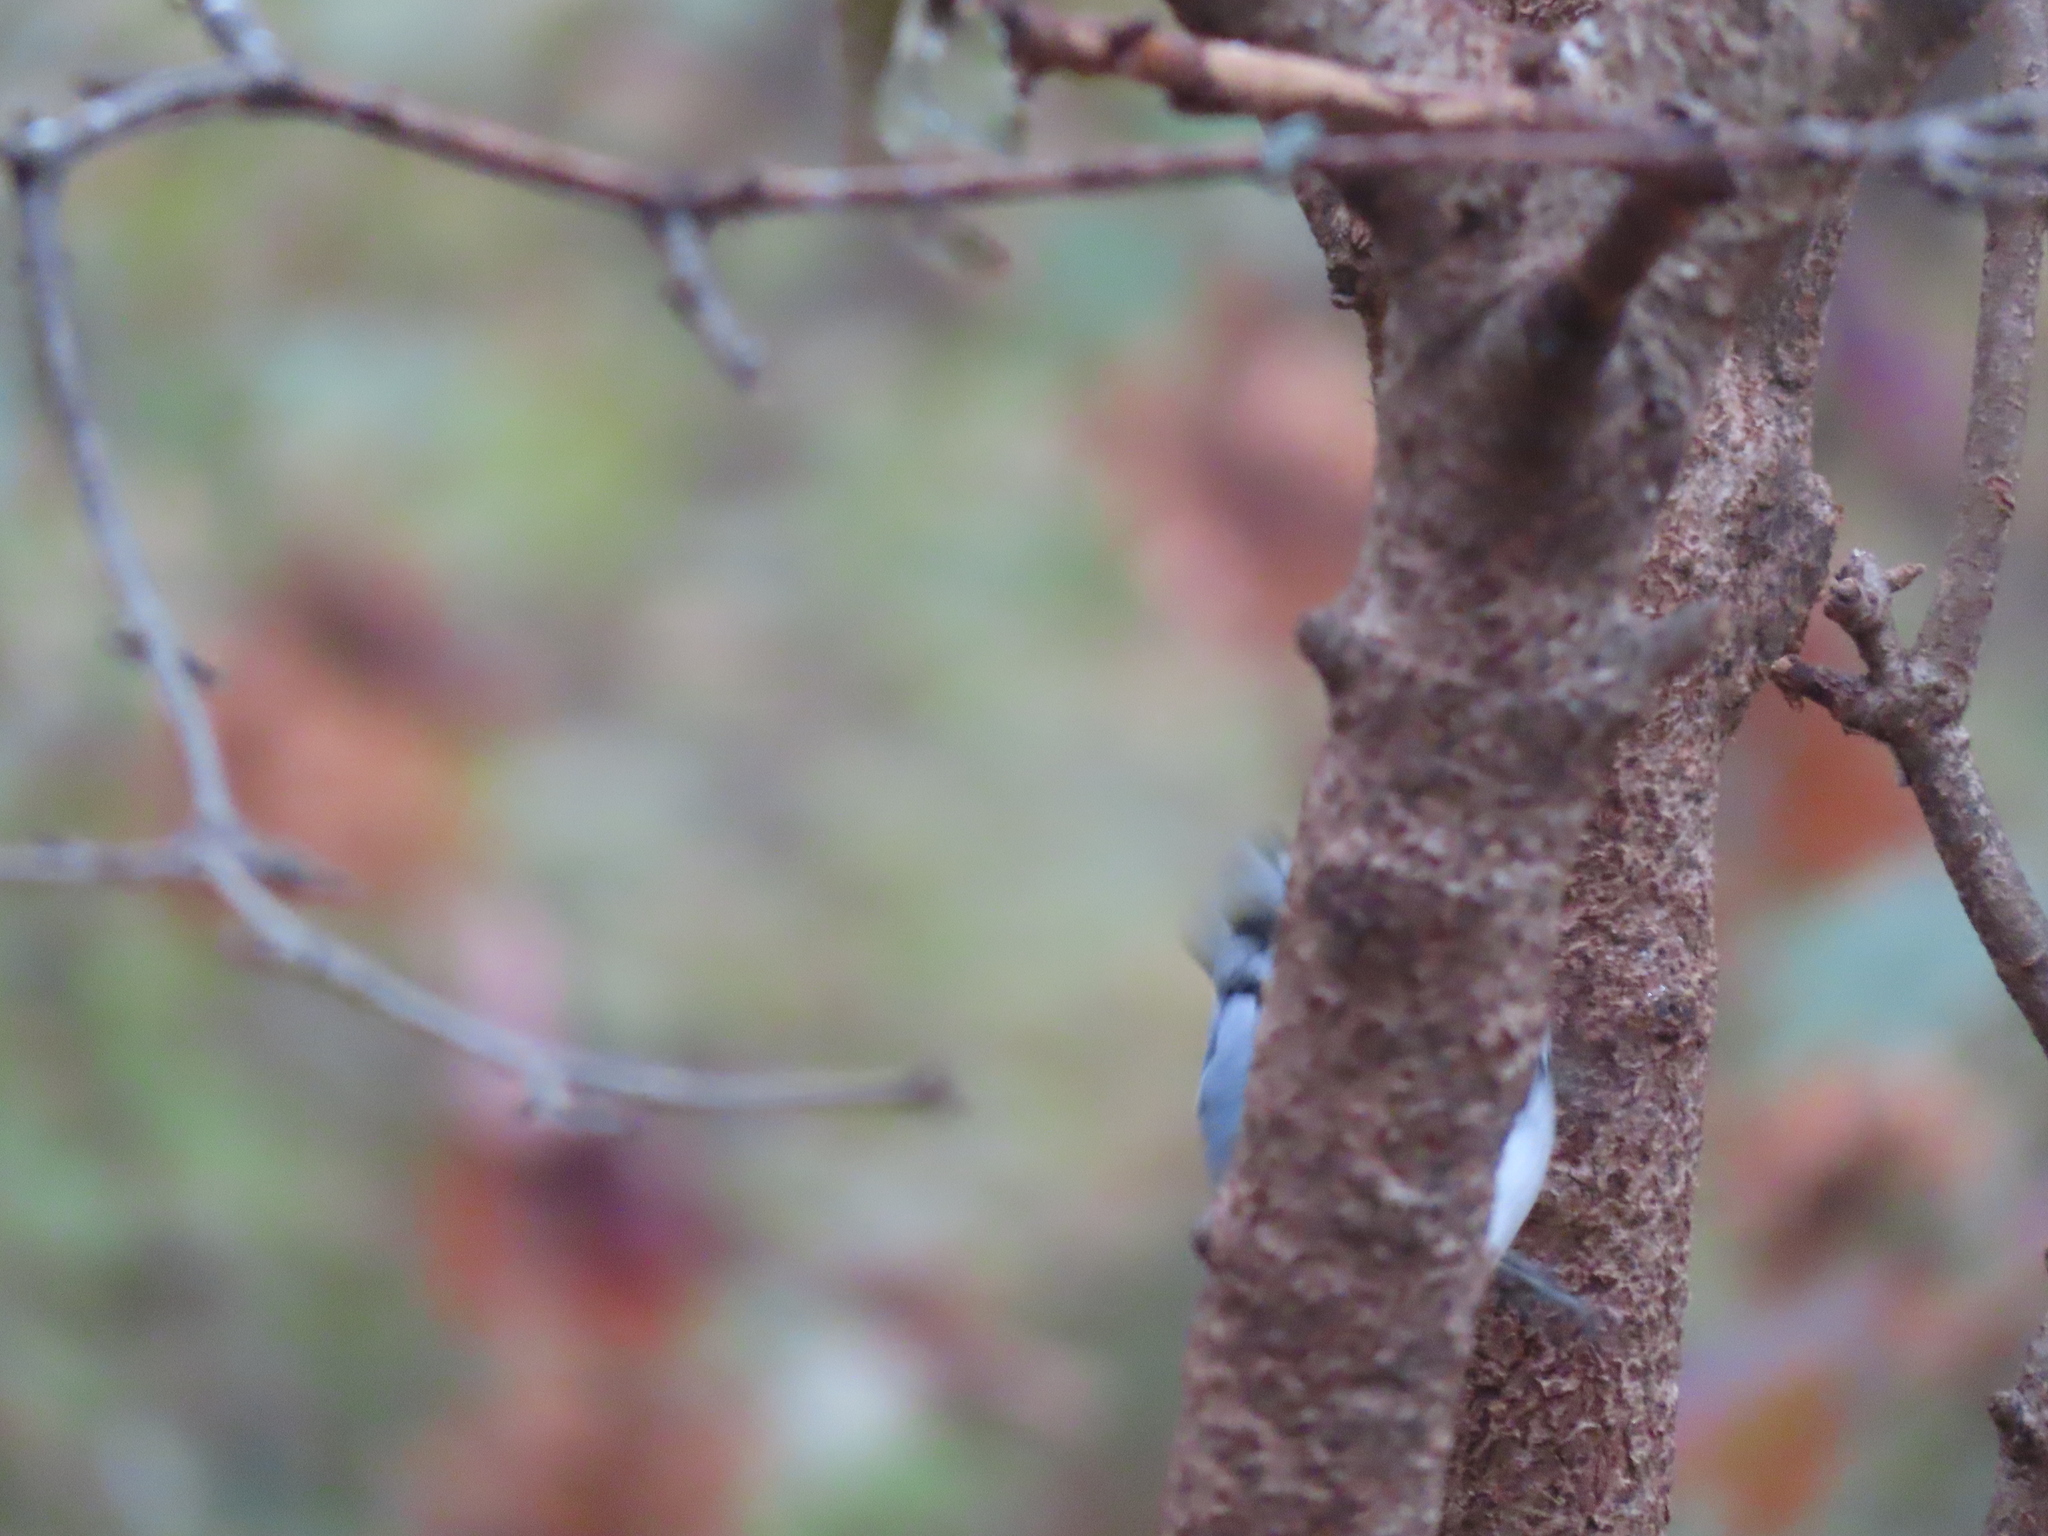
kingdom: Animalia
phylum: Chordata
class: Aves
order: Passeriformes
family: Sittidae
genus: Sitta
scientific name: Sitta carolinensis
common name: White-breasted nuthatch
